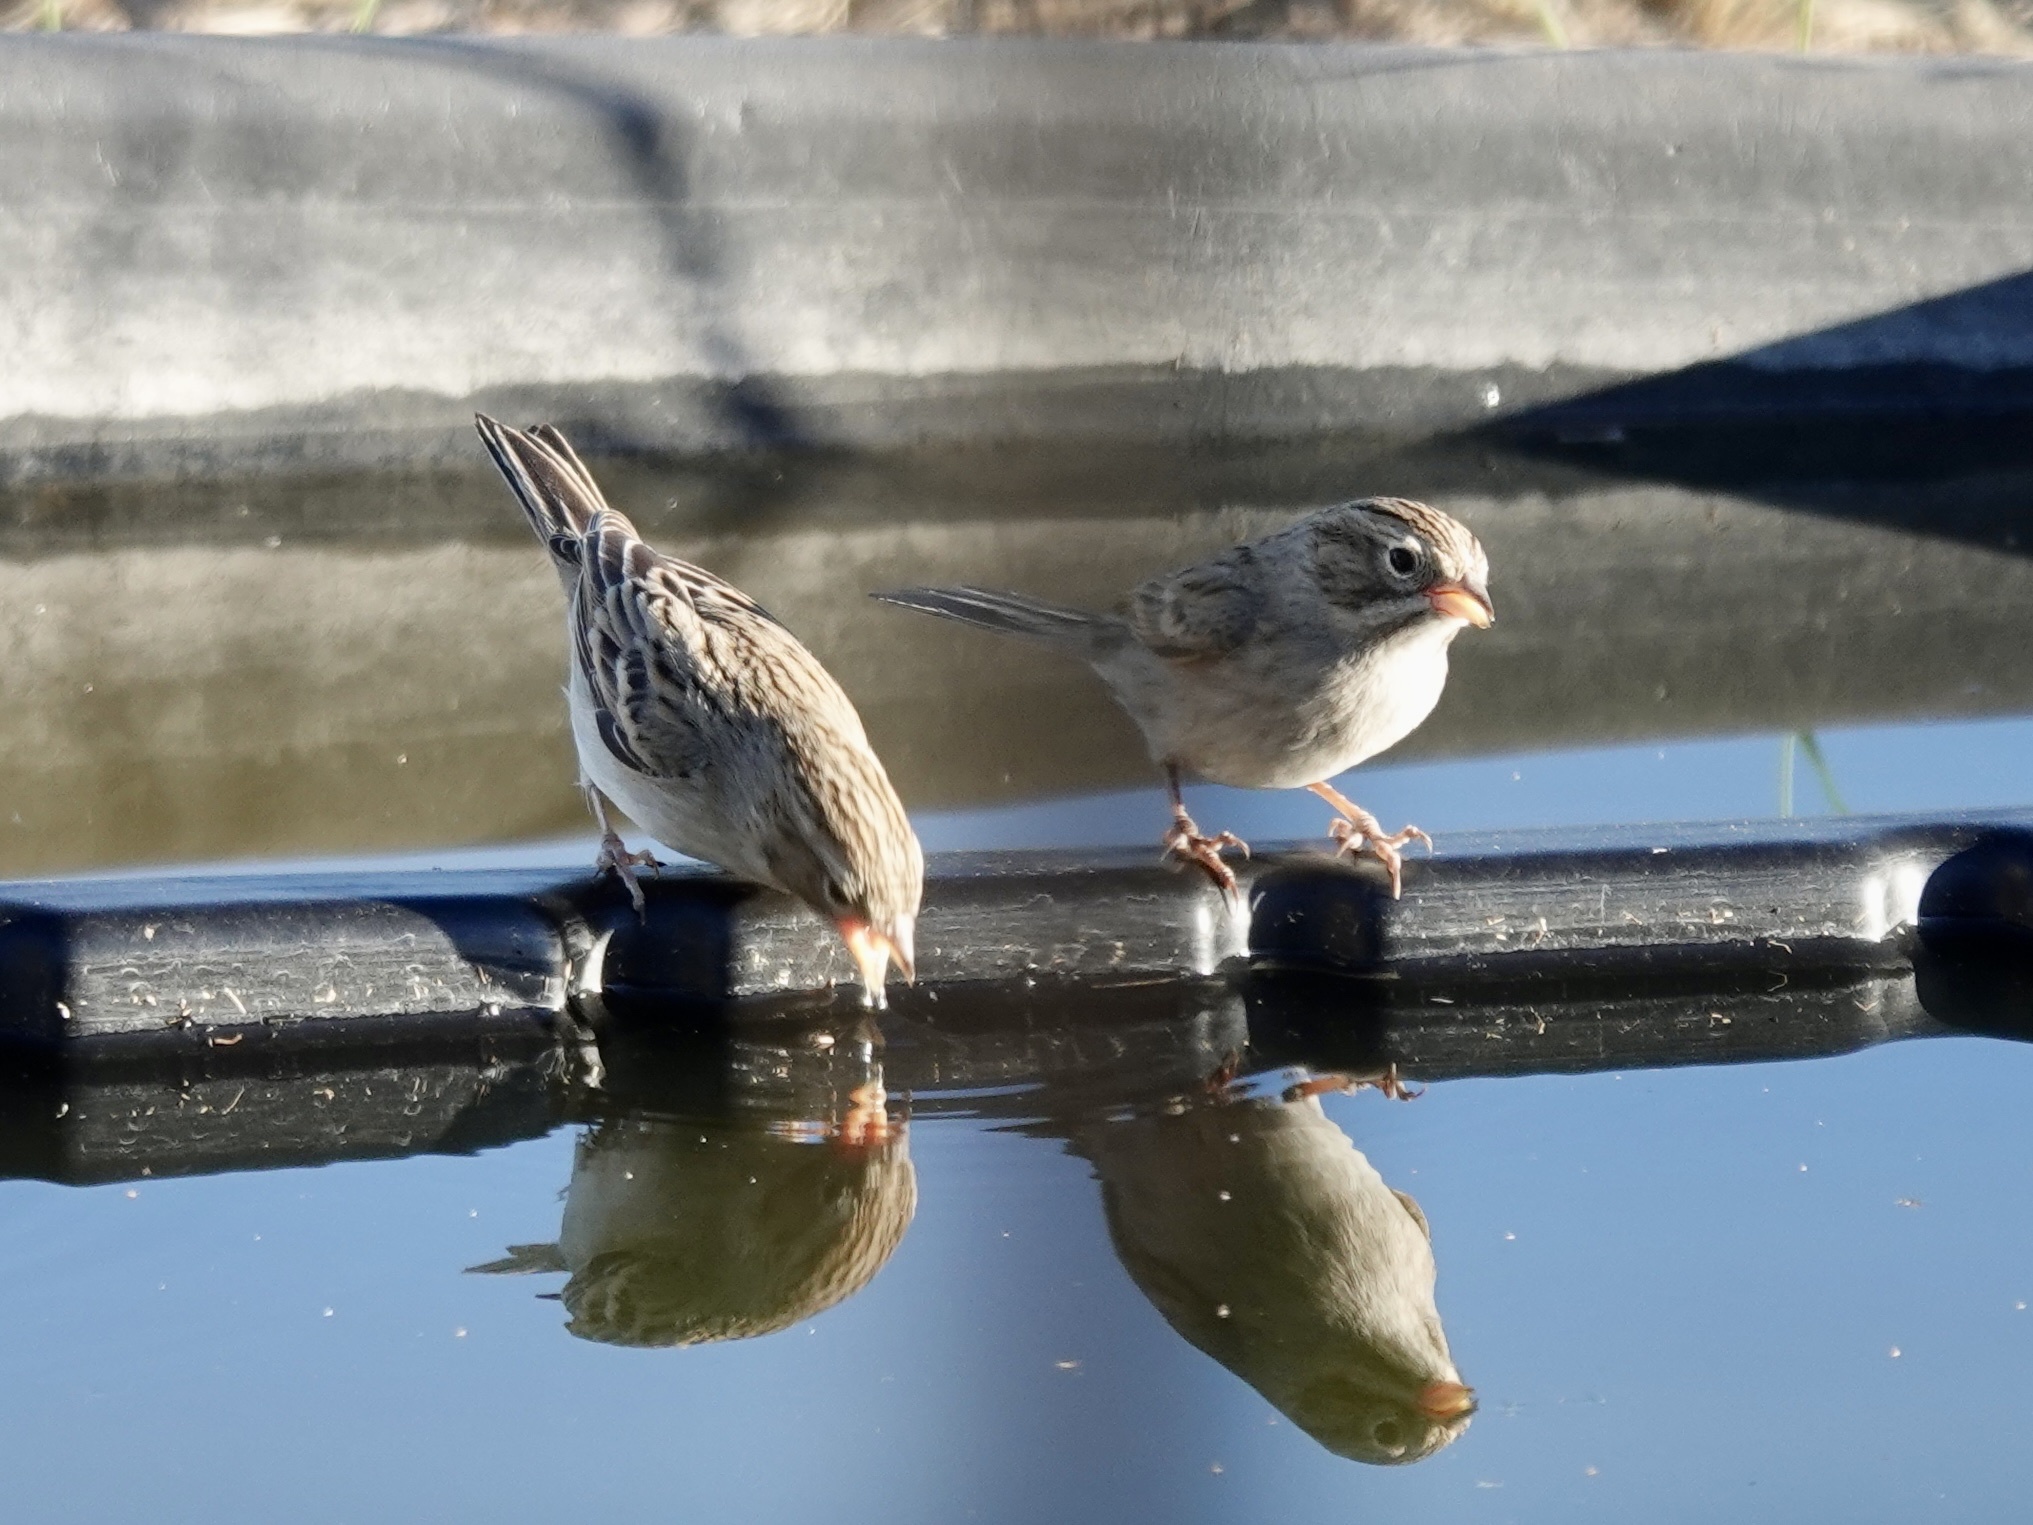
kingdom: Animalia
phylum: Chordata
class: Aves
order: Passeriformes
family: Passerellidae
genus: Spizella
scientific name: Spizella breweri
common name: Brewer's sparrow
